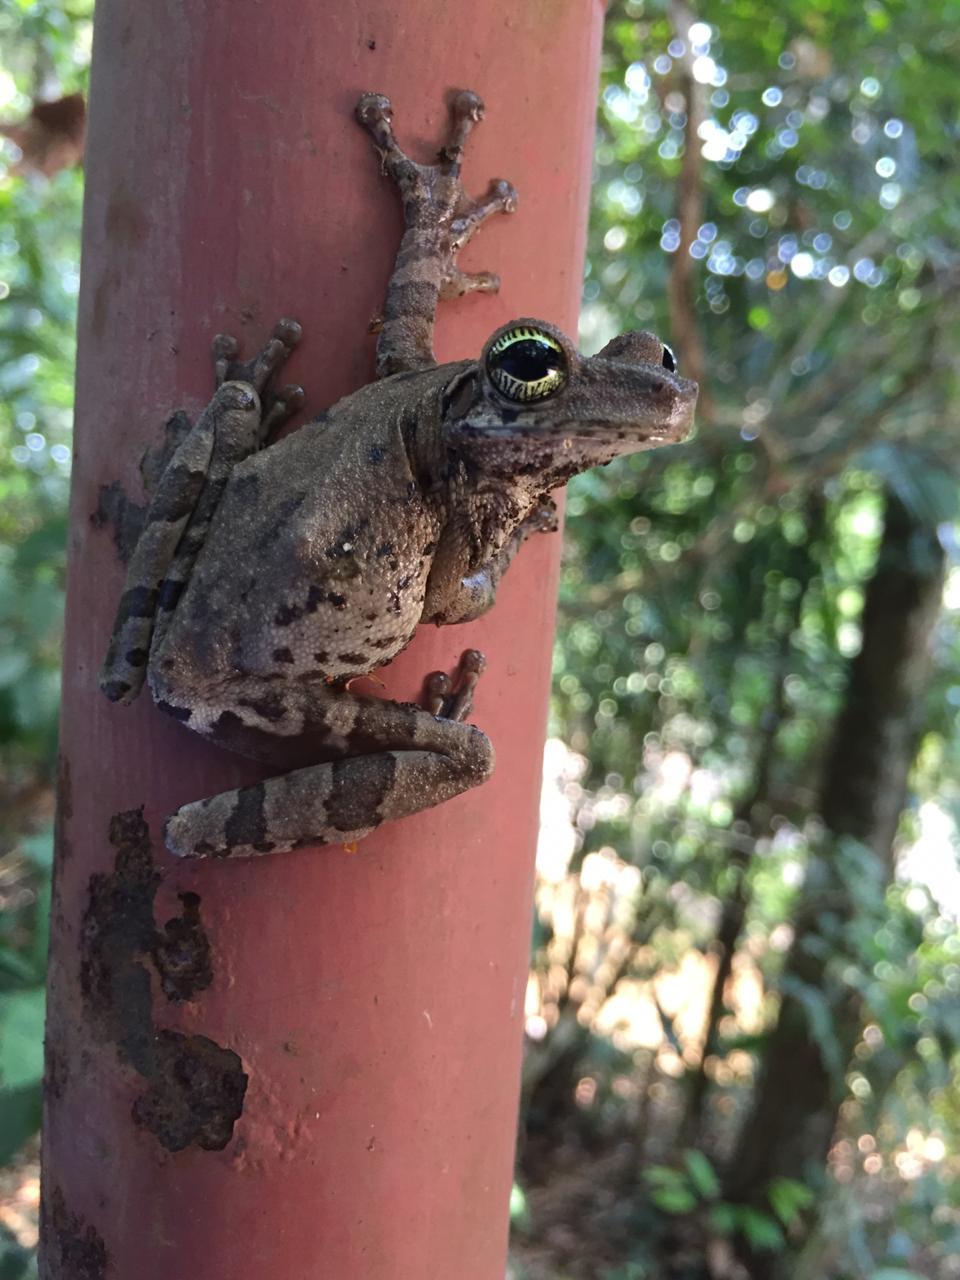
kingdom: Animalia
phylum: Chordata
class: Amphibia
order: Anura
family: Hylidae
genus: Osteocephalus
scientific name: Osteocephalus taurinus
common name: Manaus slender-legged treefrog
